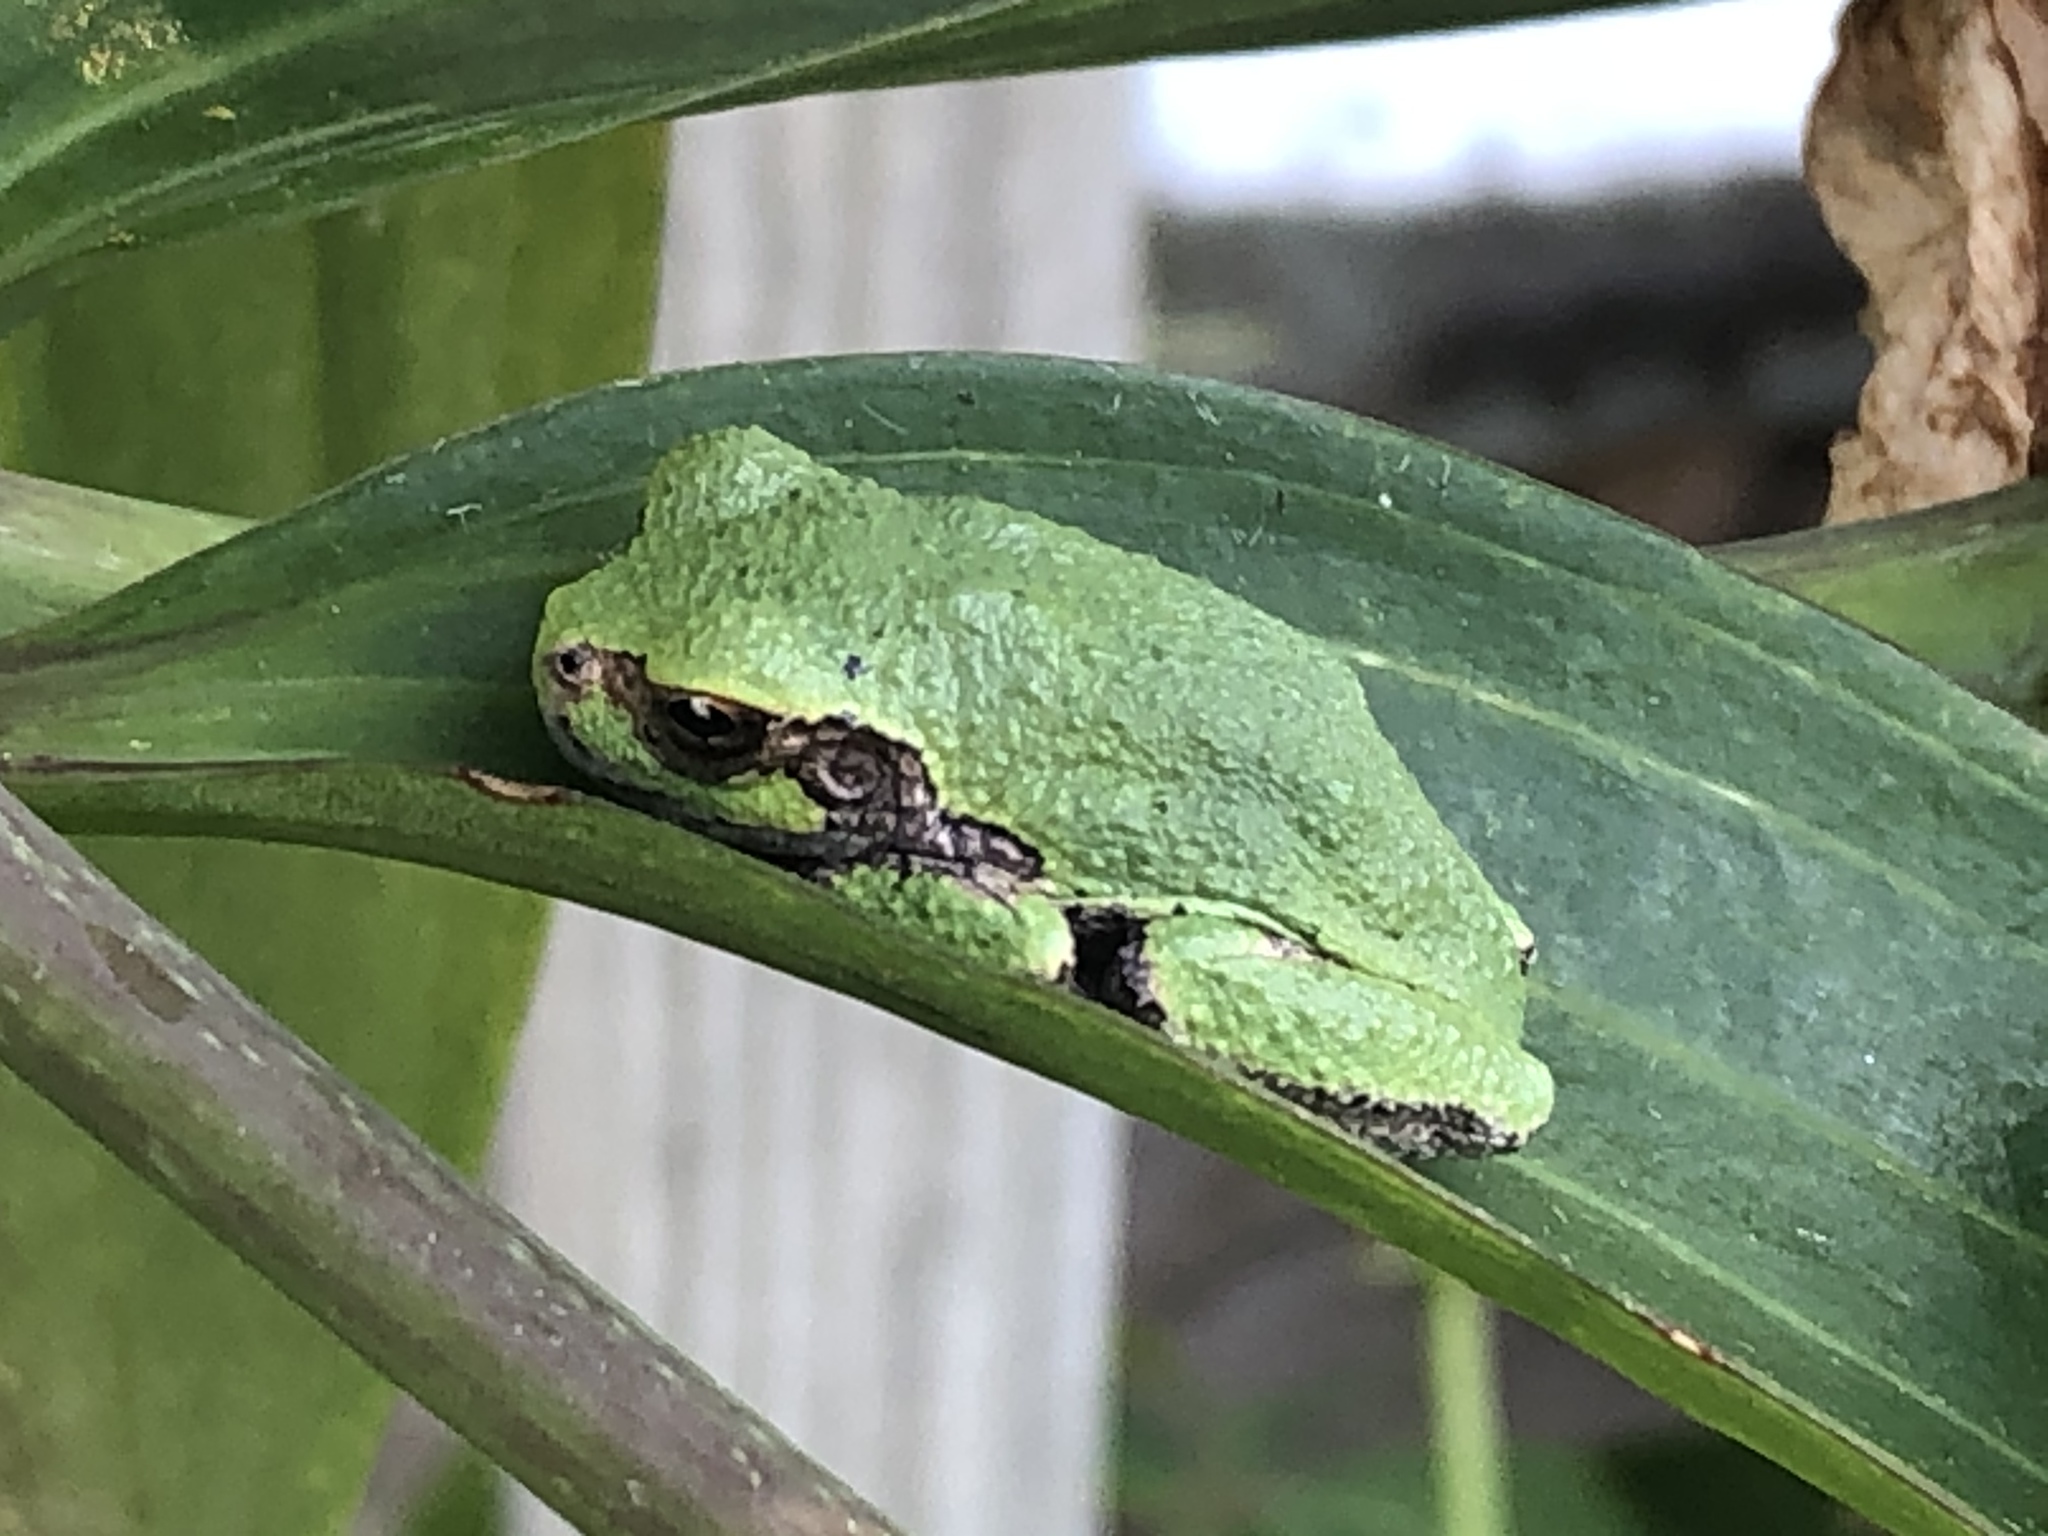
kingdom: Animalia
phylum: Chordata
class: Amphibia
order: Anura
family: Hylidae
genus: Hyla
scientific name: Hyla
